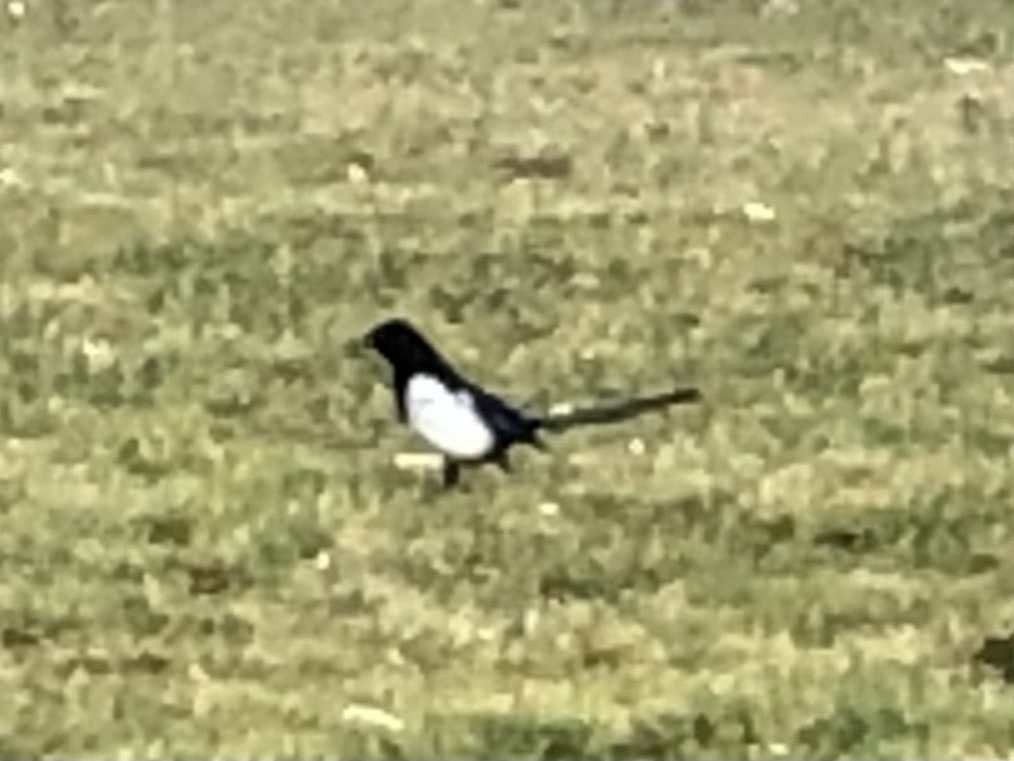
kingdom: Animalia
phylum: Chordata
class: Aves
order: Passeriformes
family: Corvidae
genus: Pica
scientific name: Pica pica
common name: Eurasian magpie
